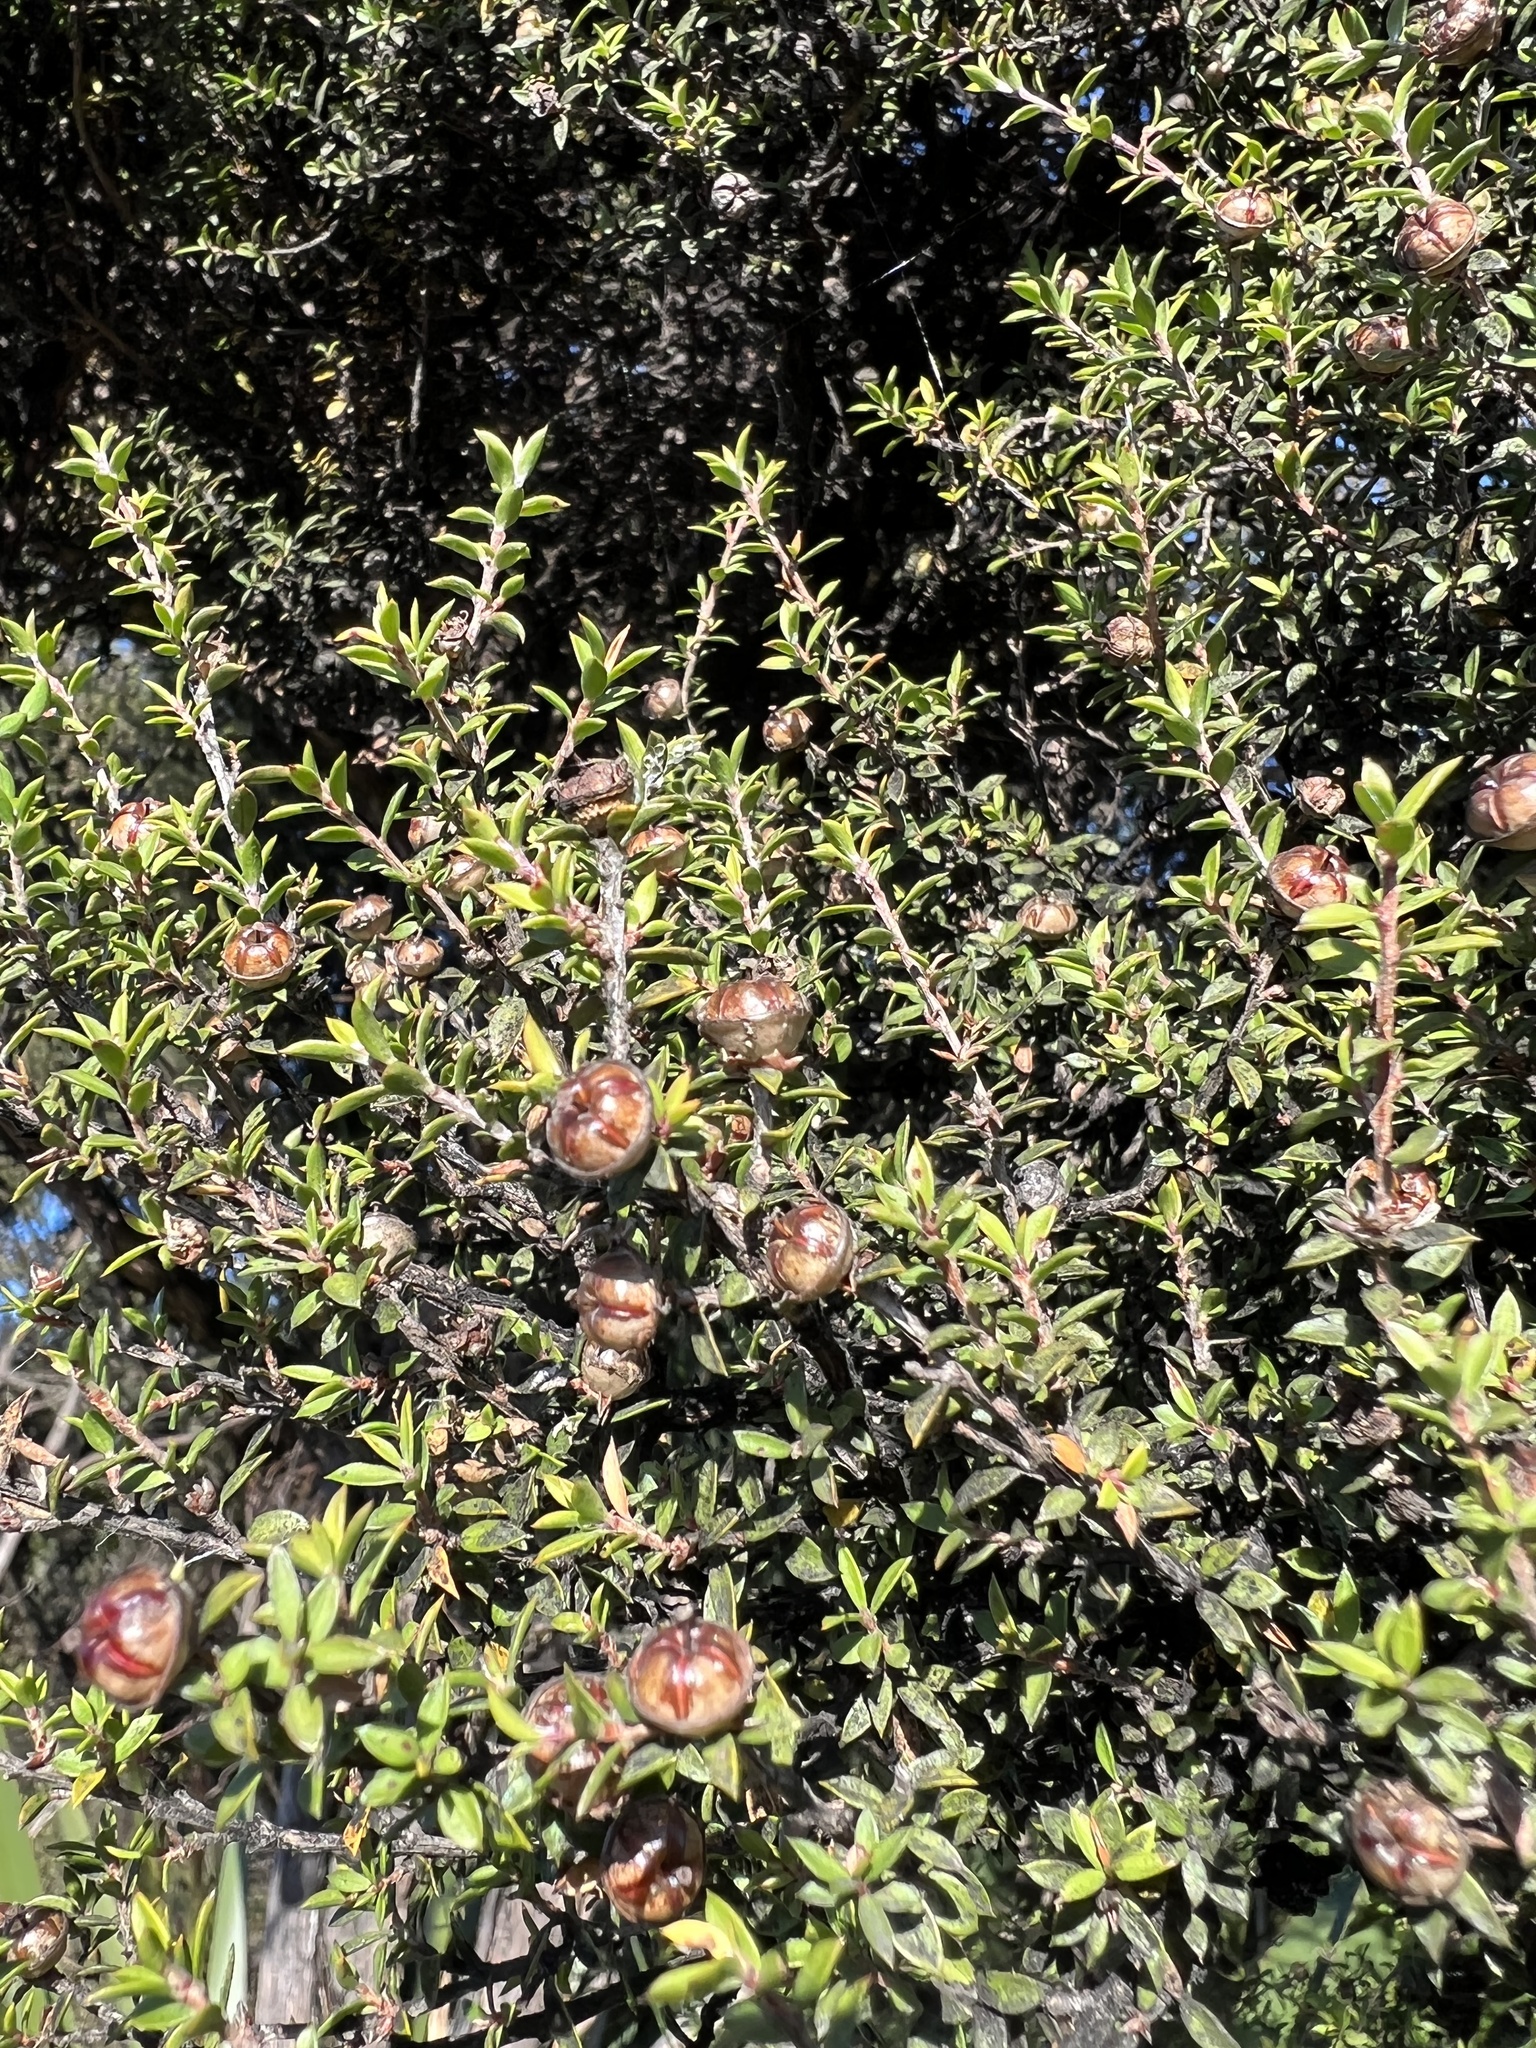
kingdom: Plantae
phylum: Tracheophyta
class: Magnoliopsida
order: Myrtales
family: Myrtaceae
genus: Leptospermum
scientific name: Leptospermum scoparium
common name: Broom tea-tree
